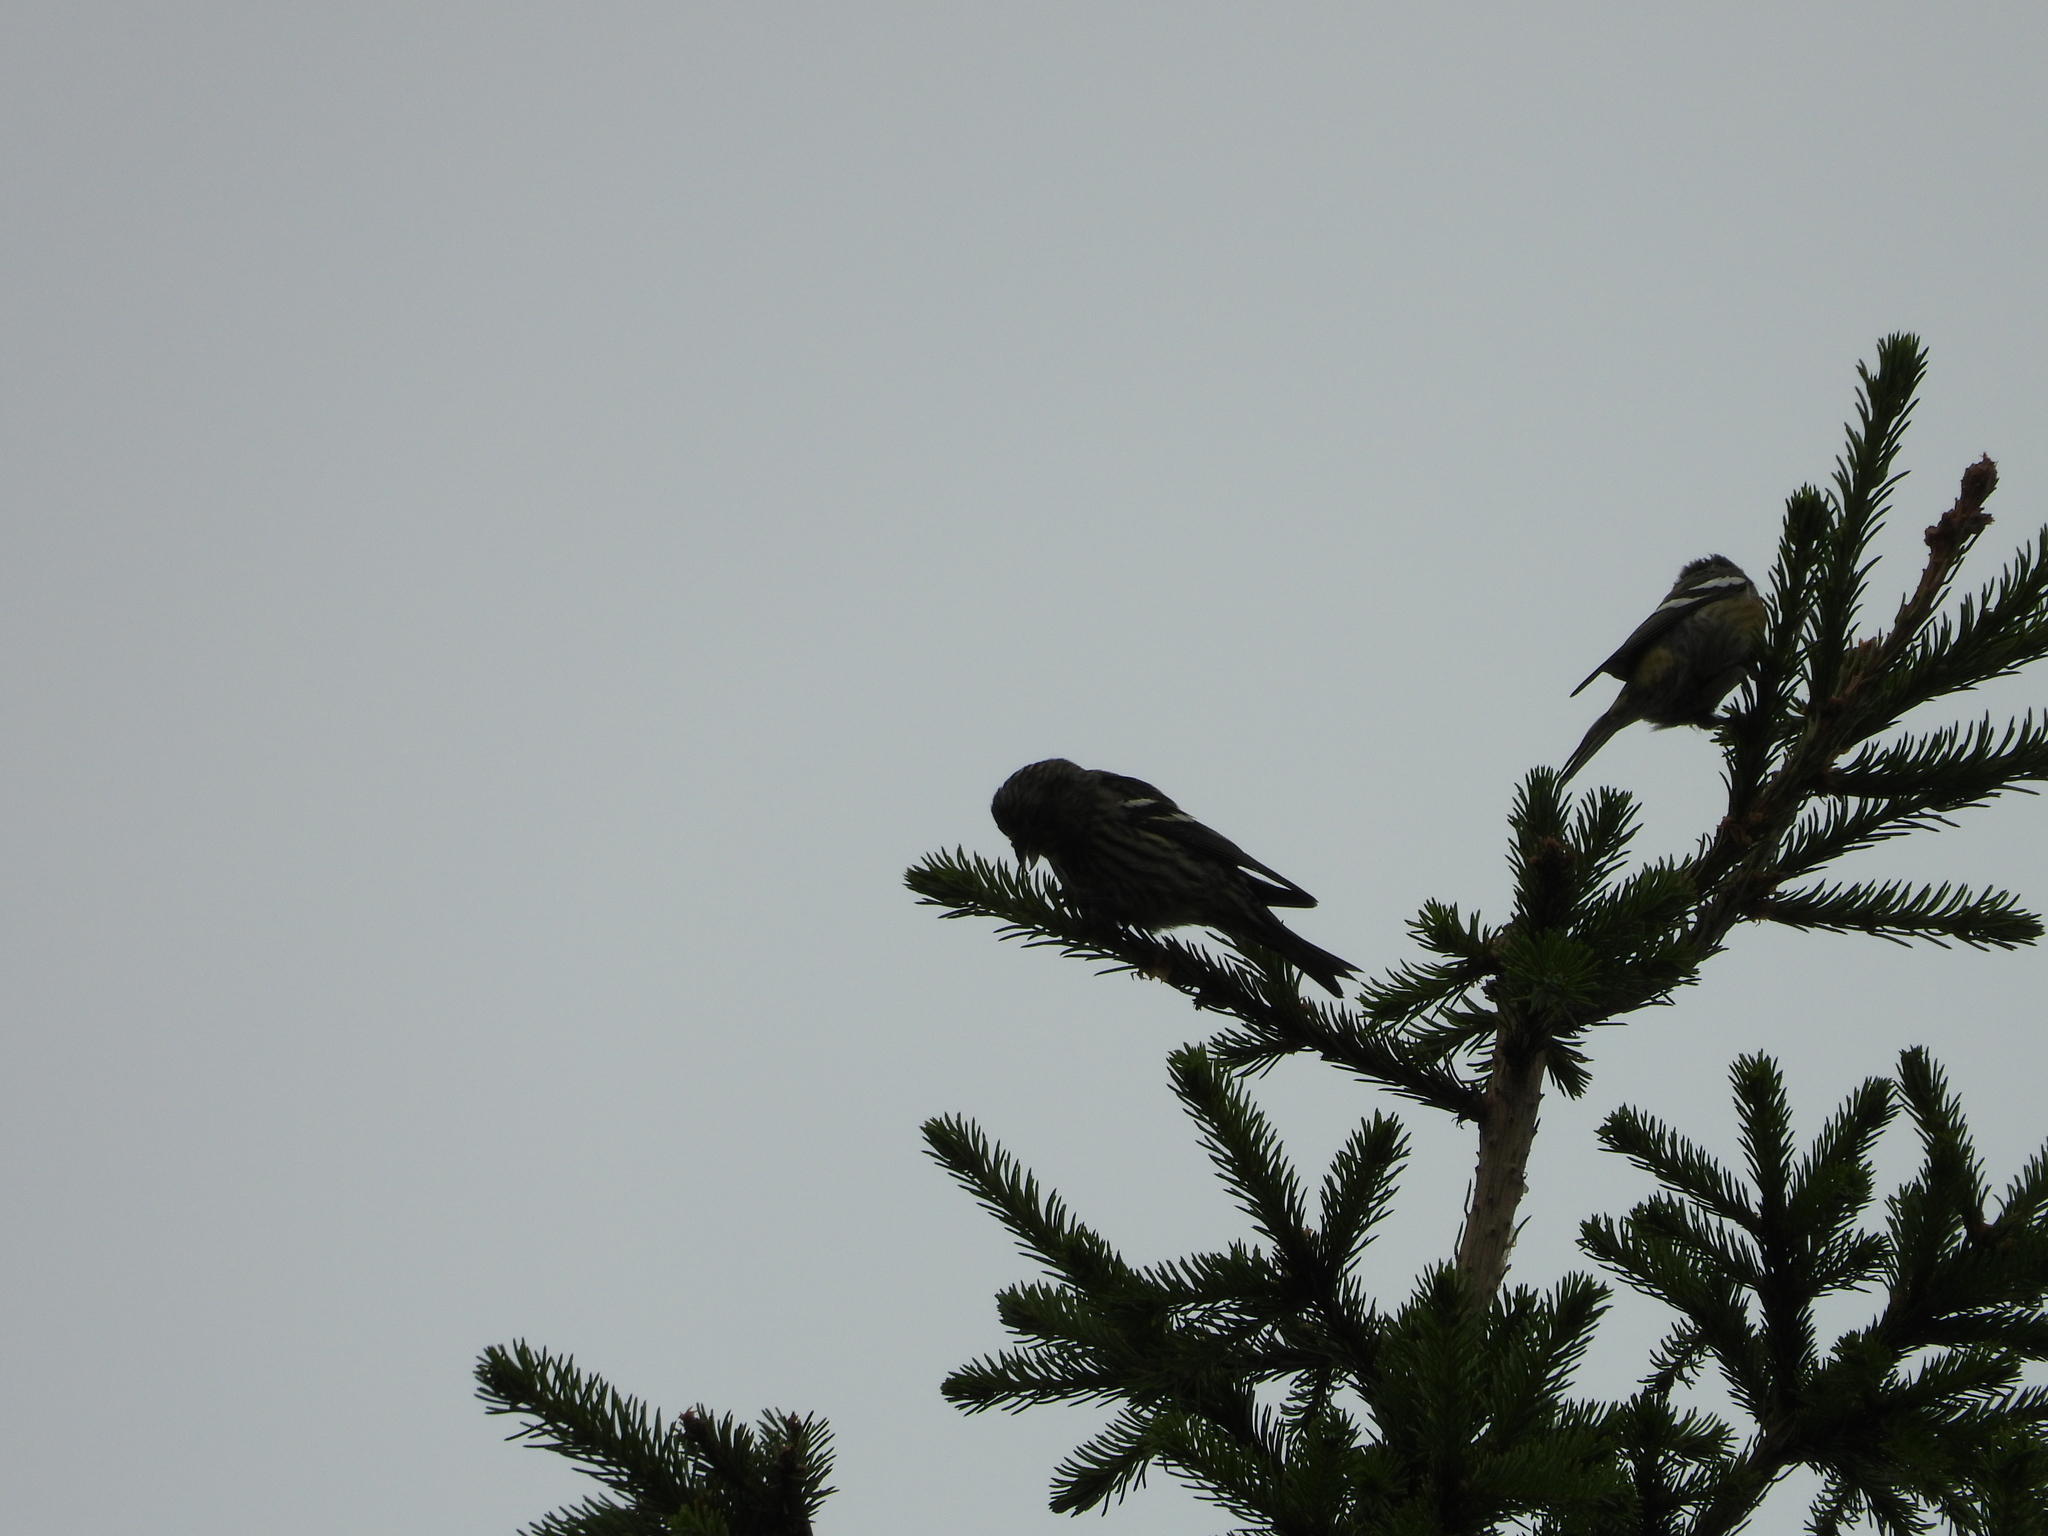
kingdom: Animalia
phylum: Chordata
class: Aves
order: Passeriformes
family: Fringillidae
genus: Loxia
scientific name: Loxia leucoptera
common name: Two-barred crossbill
